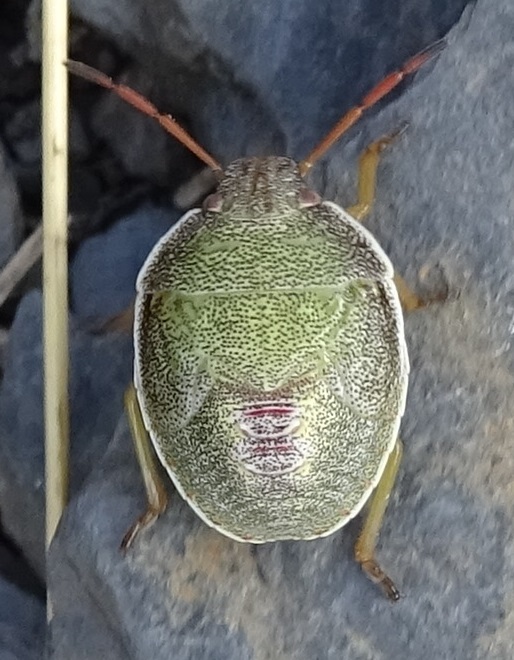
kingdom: Animalia
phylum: Arthropoda
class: Insecta
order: Hemiptera
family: Pentatomidae
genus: Piezodorus
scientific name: Piezodorus lituratus
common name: Stink bug
